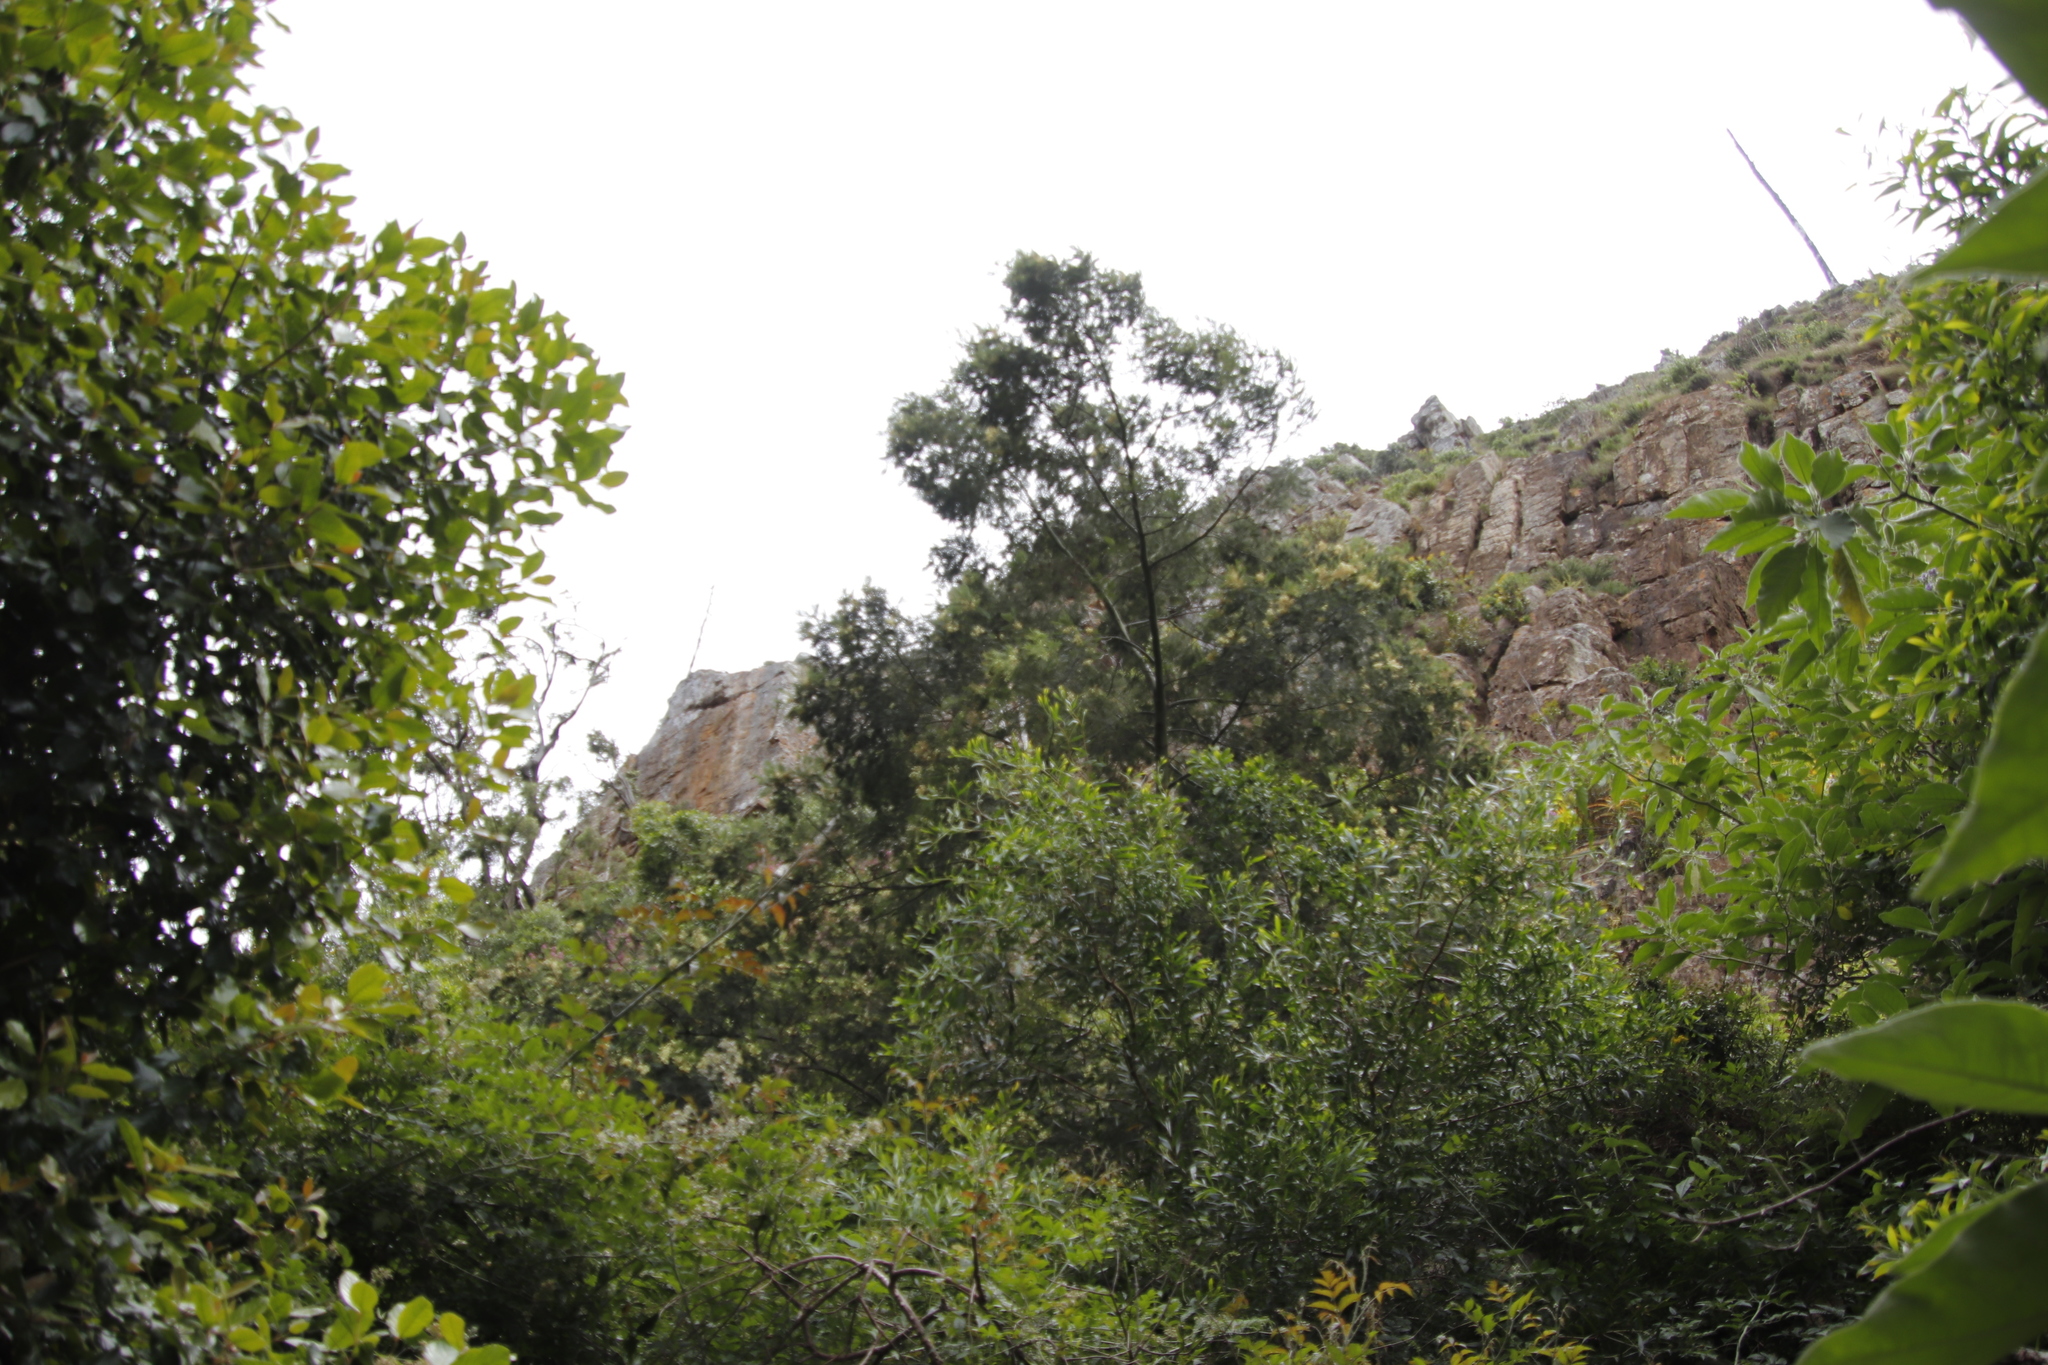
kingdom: Plantae
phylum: Tracheophyta
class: Magnoliopsida
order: Fabales
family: Fabaceae
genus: Acacia
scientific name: Acacia mearnsii
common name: Black wattle
